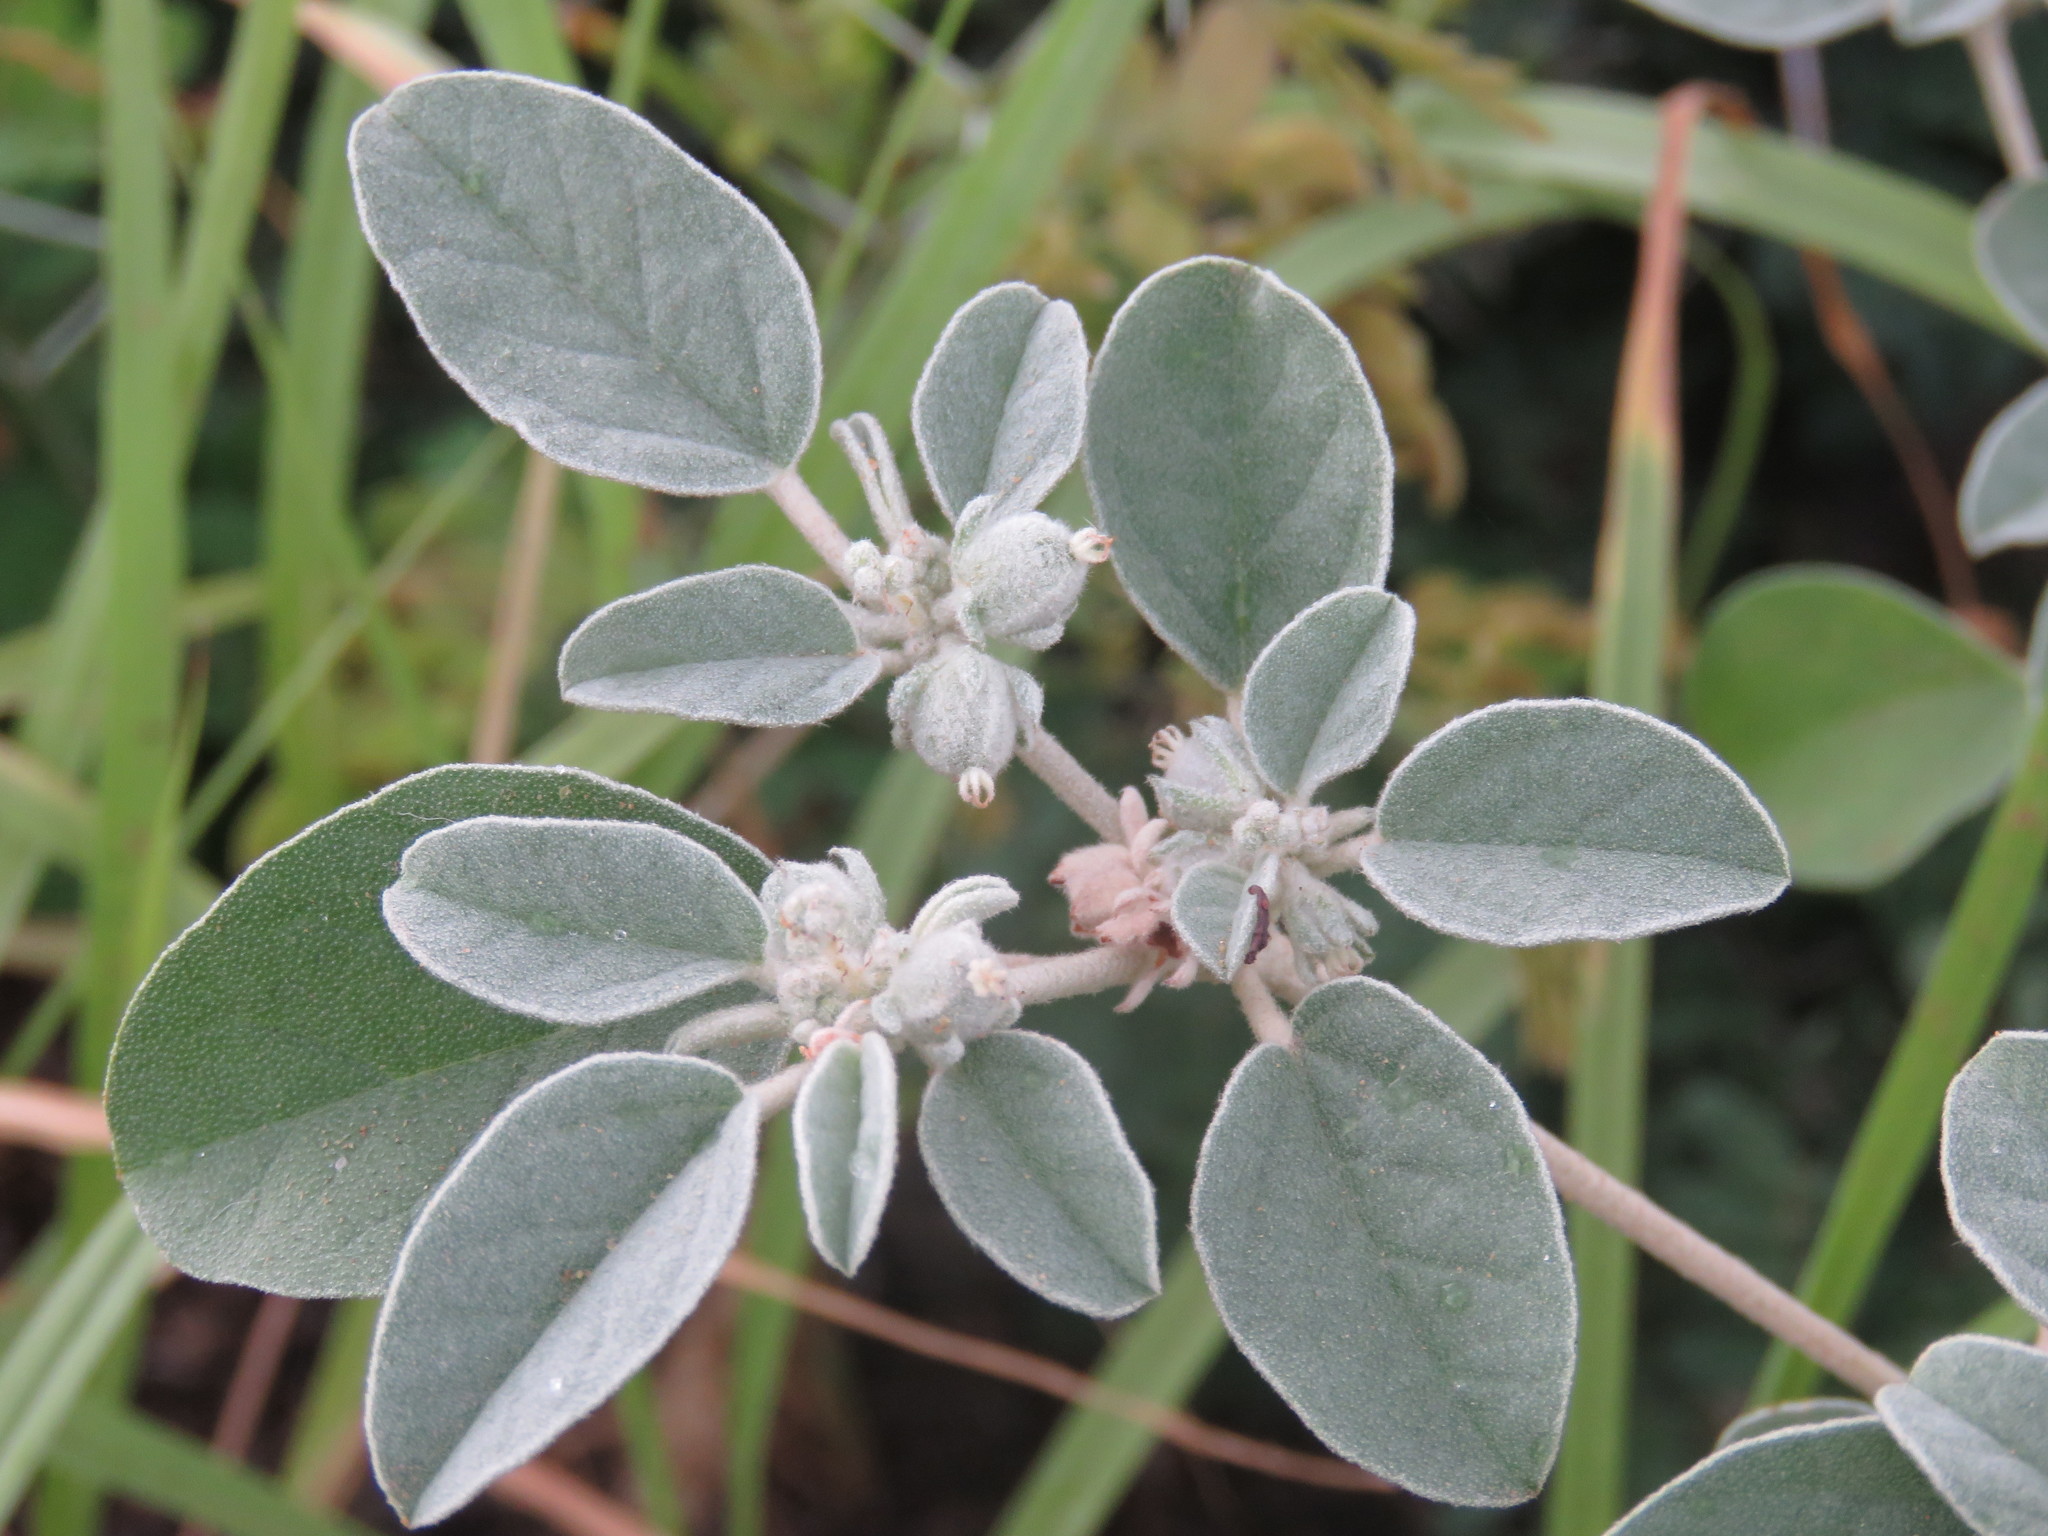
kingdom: Plantae
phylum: Tracheophyta
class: Magnoliopsida
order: Malpighiales
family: Euphorbiaceae
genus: Croton
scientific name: Croton lindheimerianus
